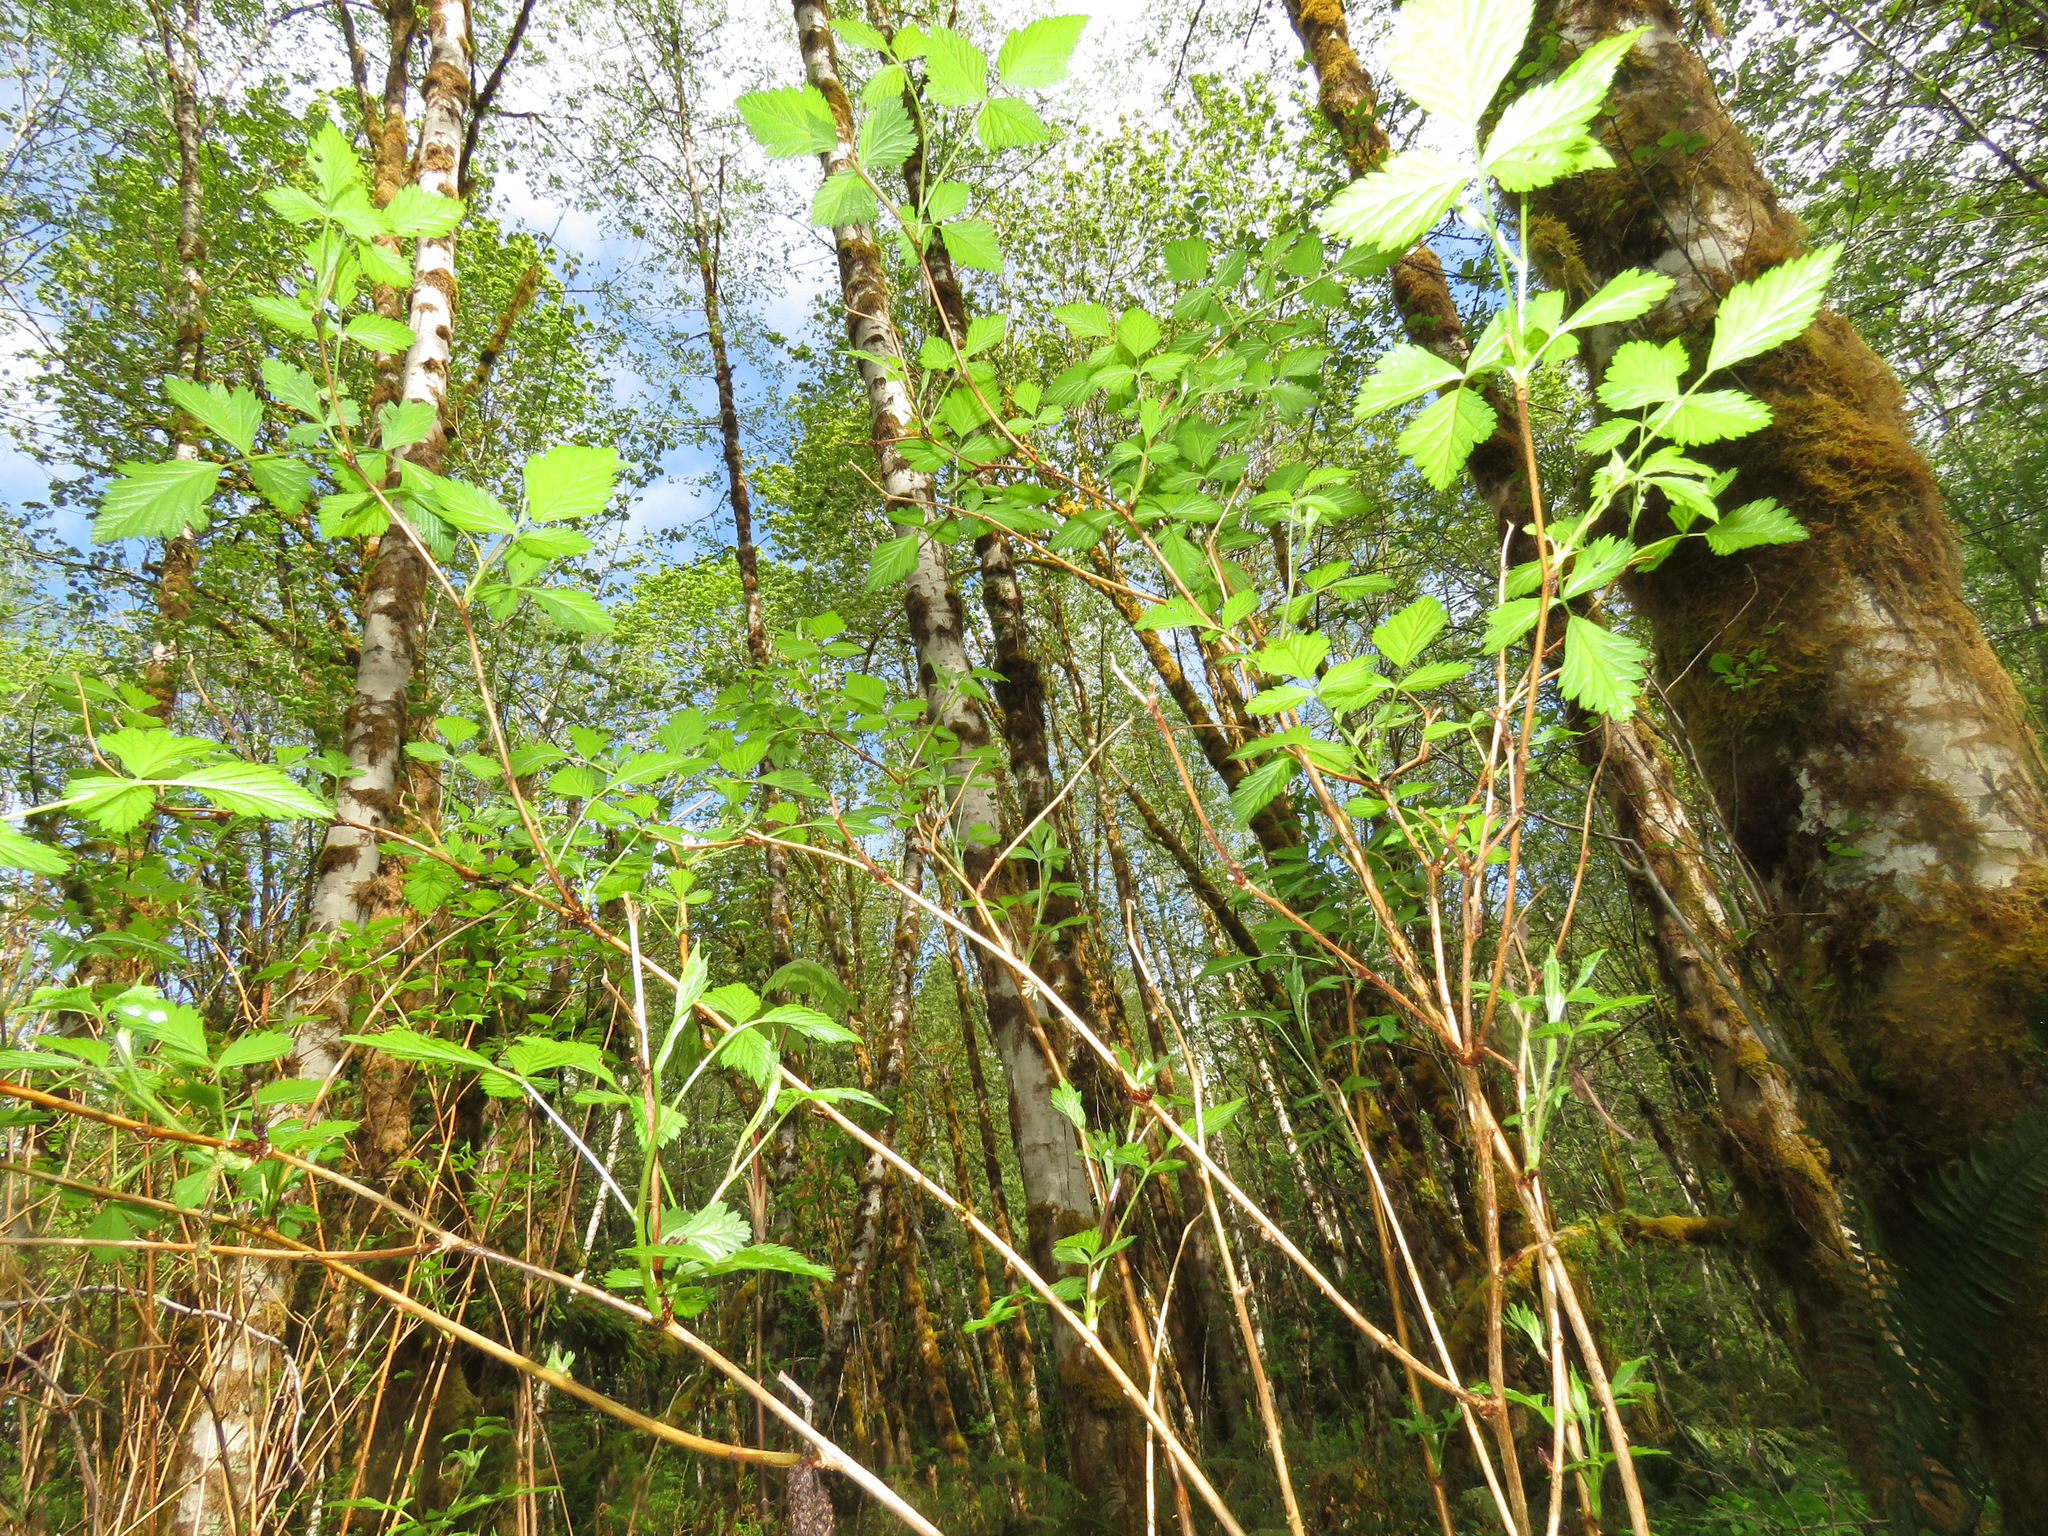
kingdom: Plantae
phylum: Tracheophyta
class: Magnoliopsida
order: Rosales
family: Rosaceae
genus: Rubus
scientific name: Rubus spectabilis
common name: Salmonberry
